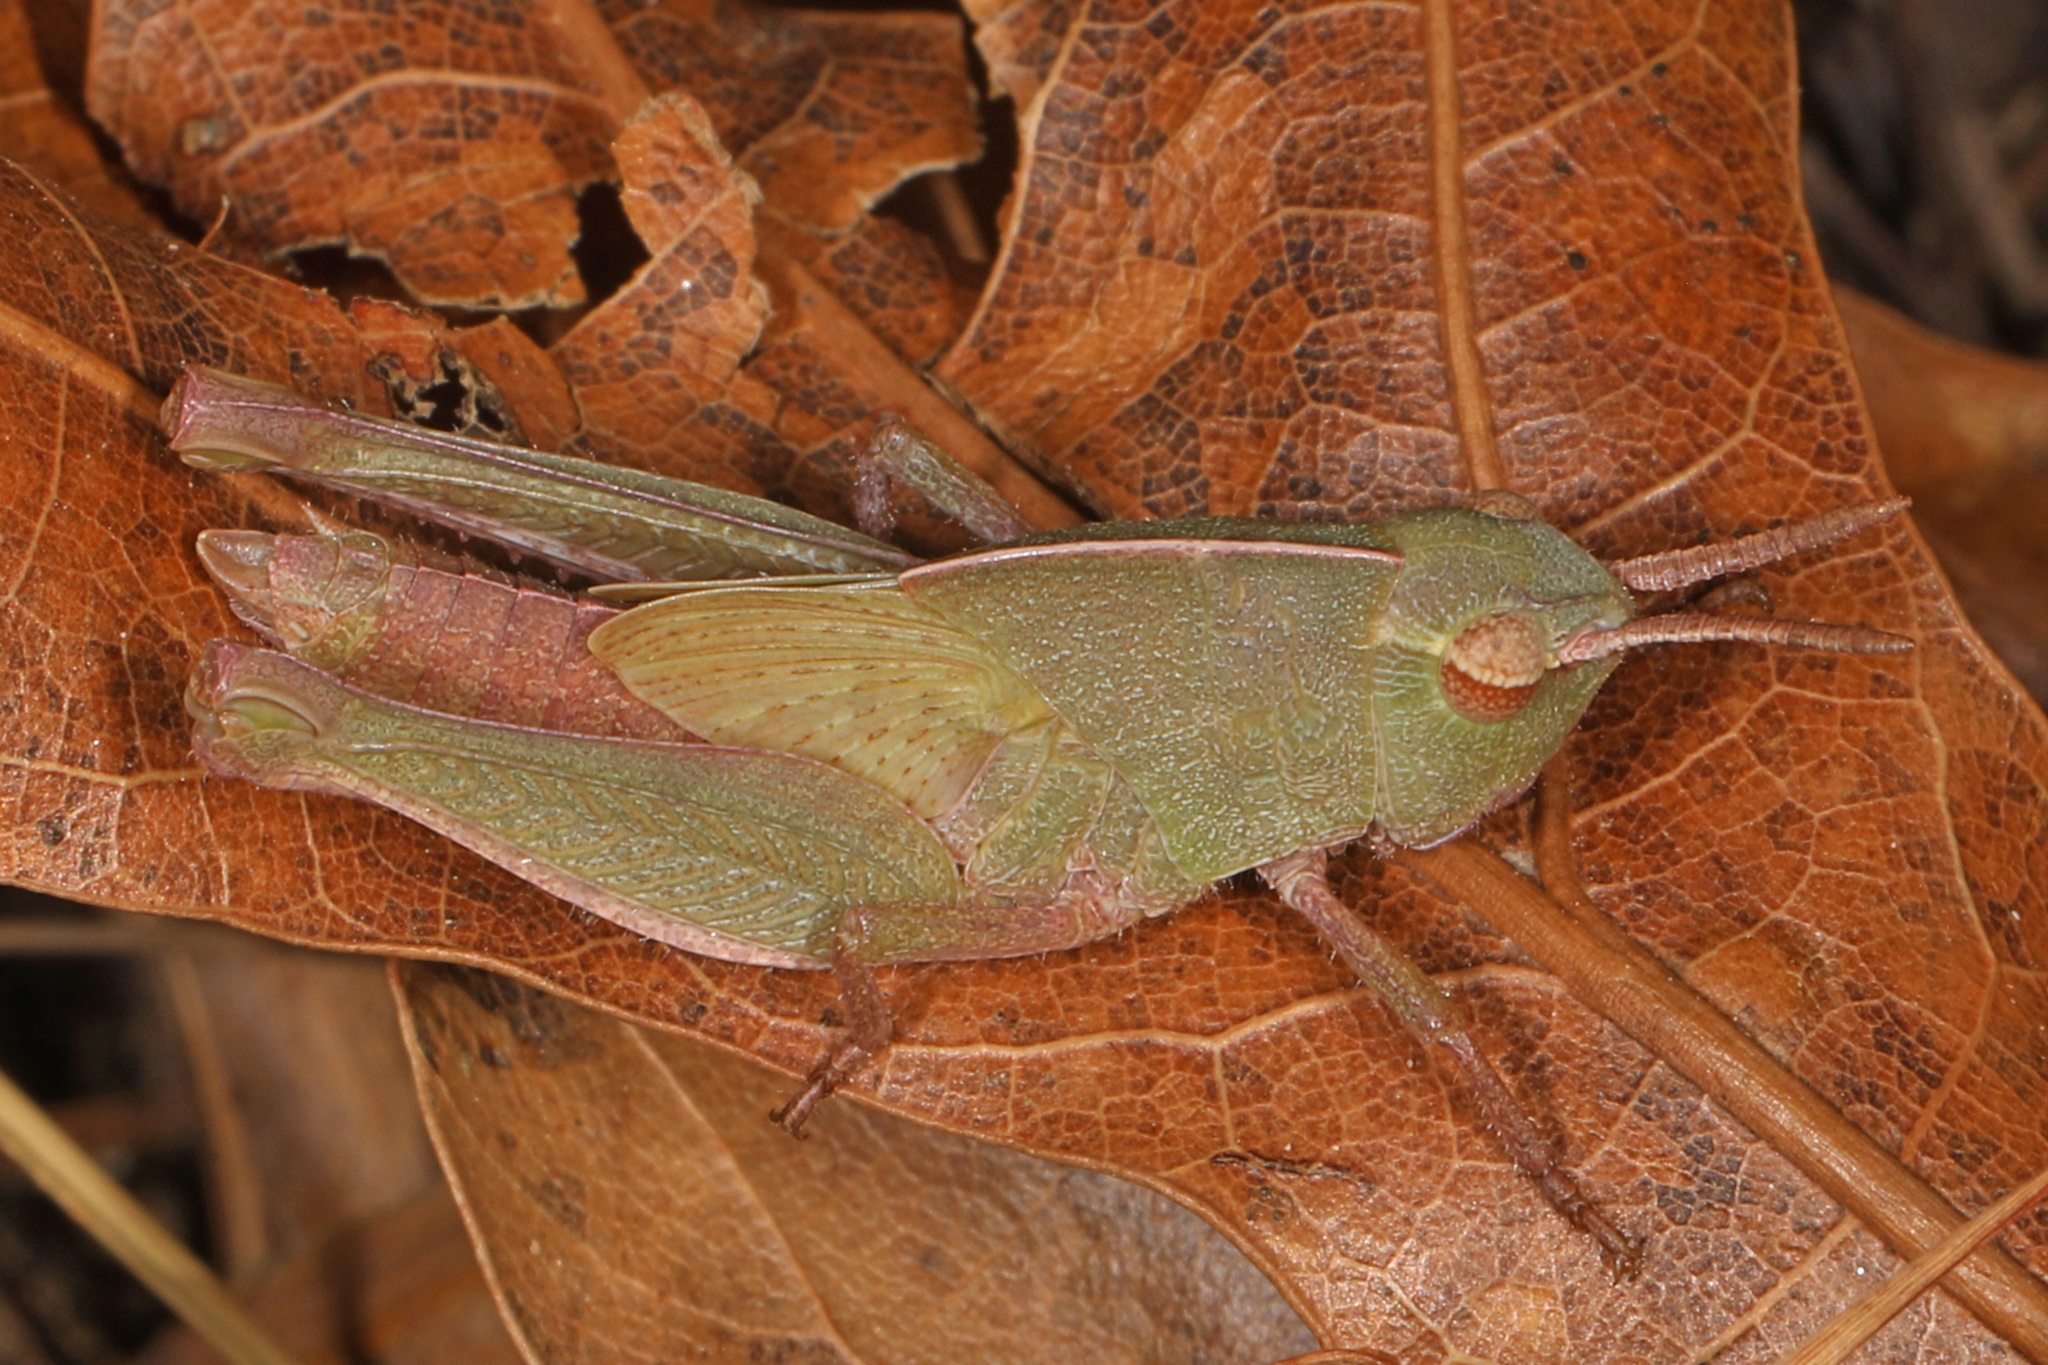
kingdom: Animalia
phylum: Arthropoda
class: Insecta
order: Orthoptera
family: Acrididae
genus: Chortophaga
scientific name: Chortophaga viridifasciata
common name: Green-striped grasshopper
